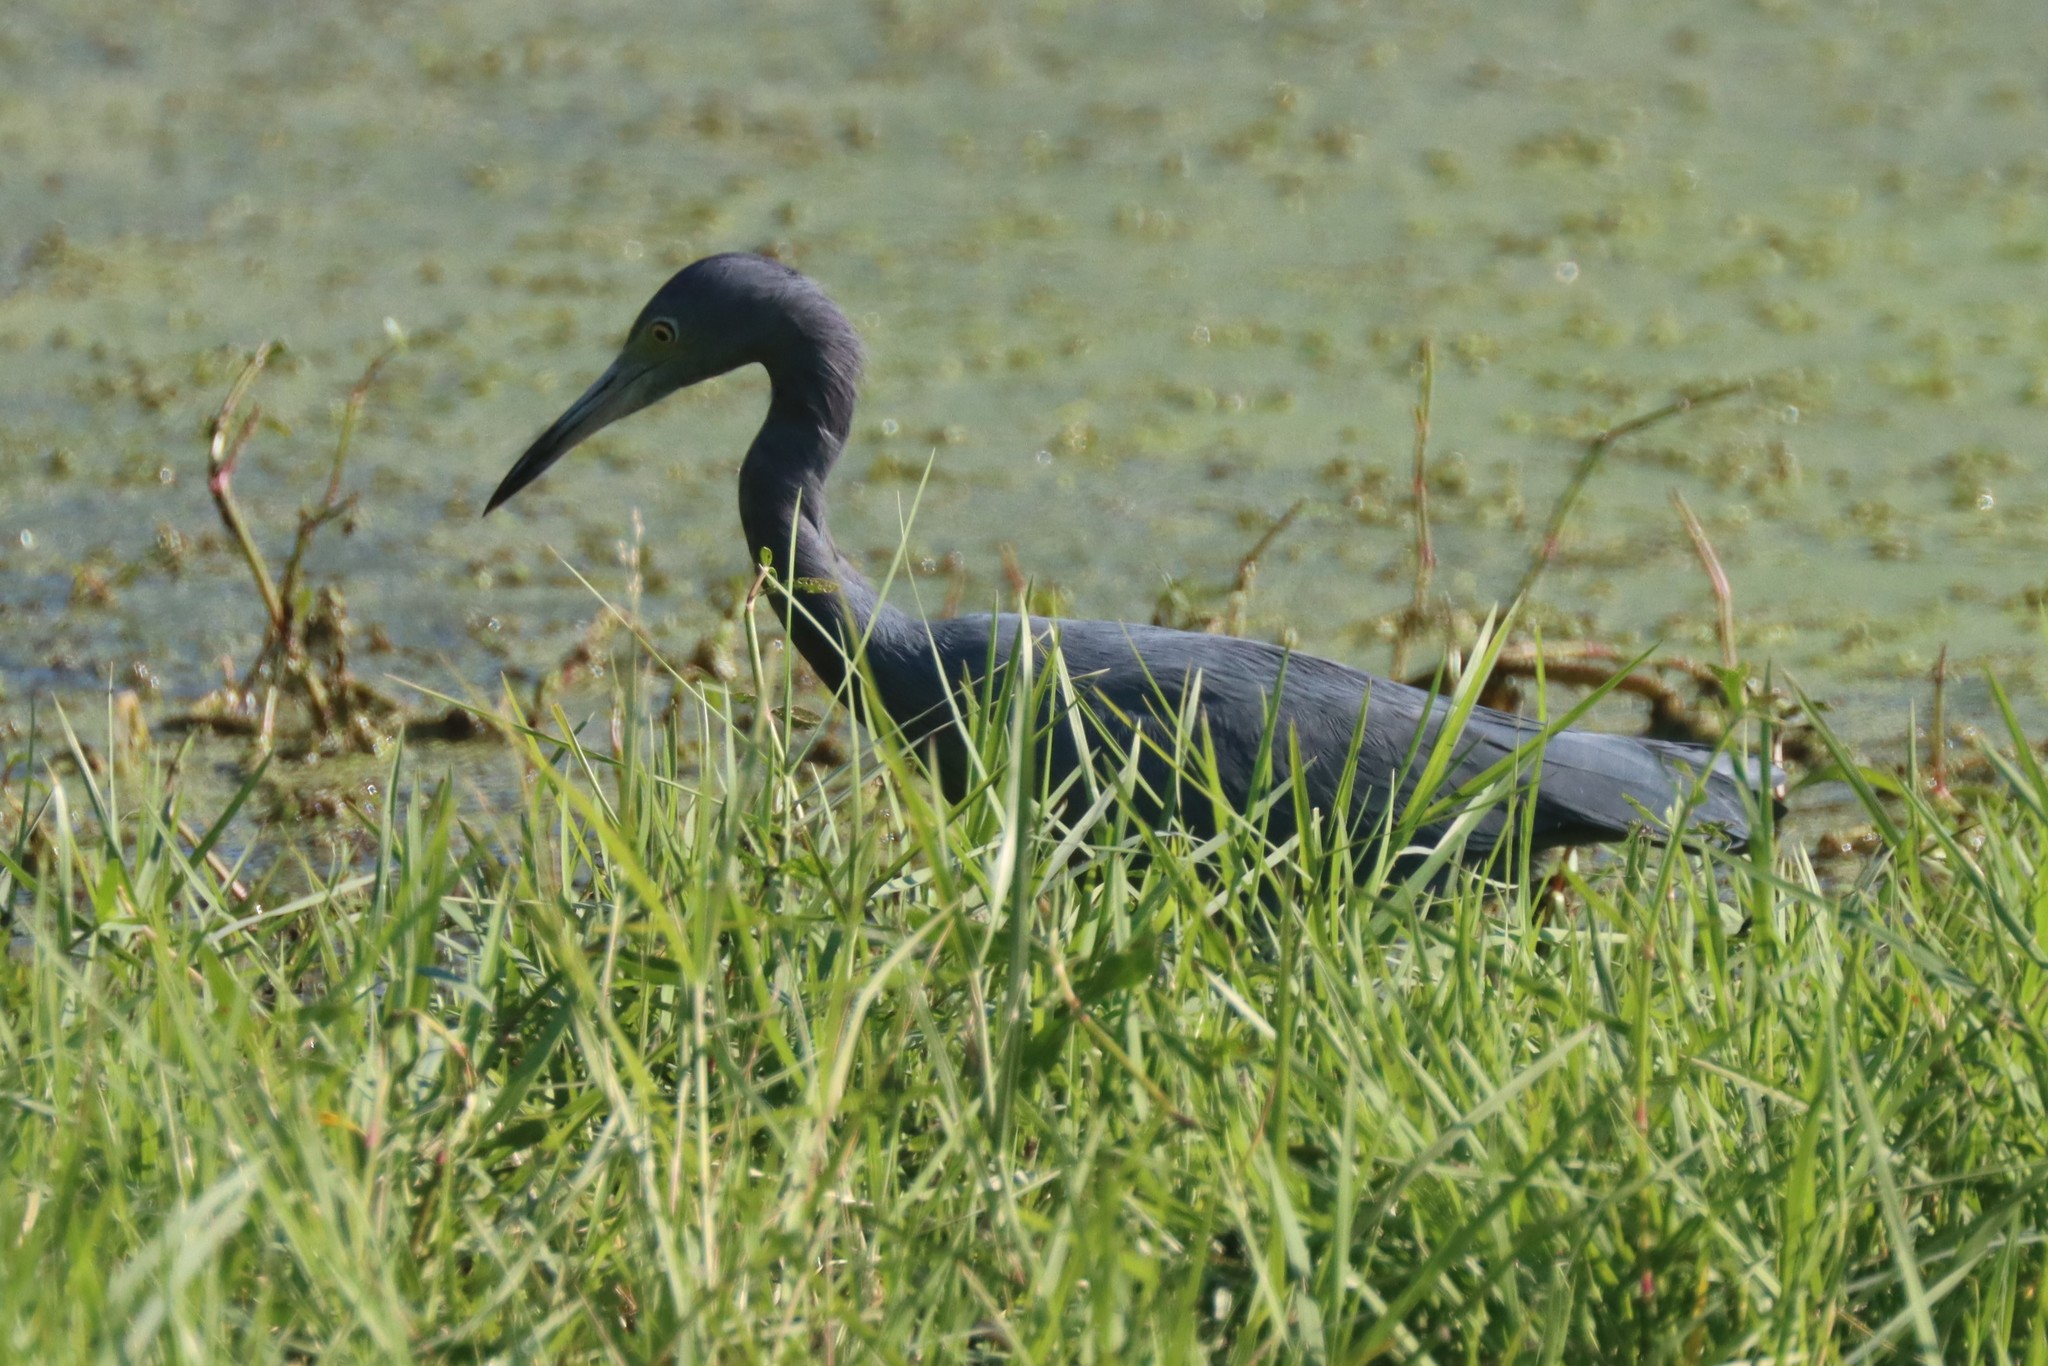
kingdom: Animalia
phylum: Chordata
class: Aves
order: Pelecaniformes
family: Ardeidae
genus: Egretta
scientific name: Egretta caerulea
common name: Little blue heron
